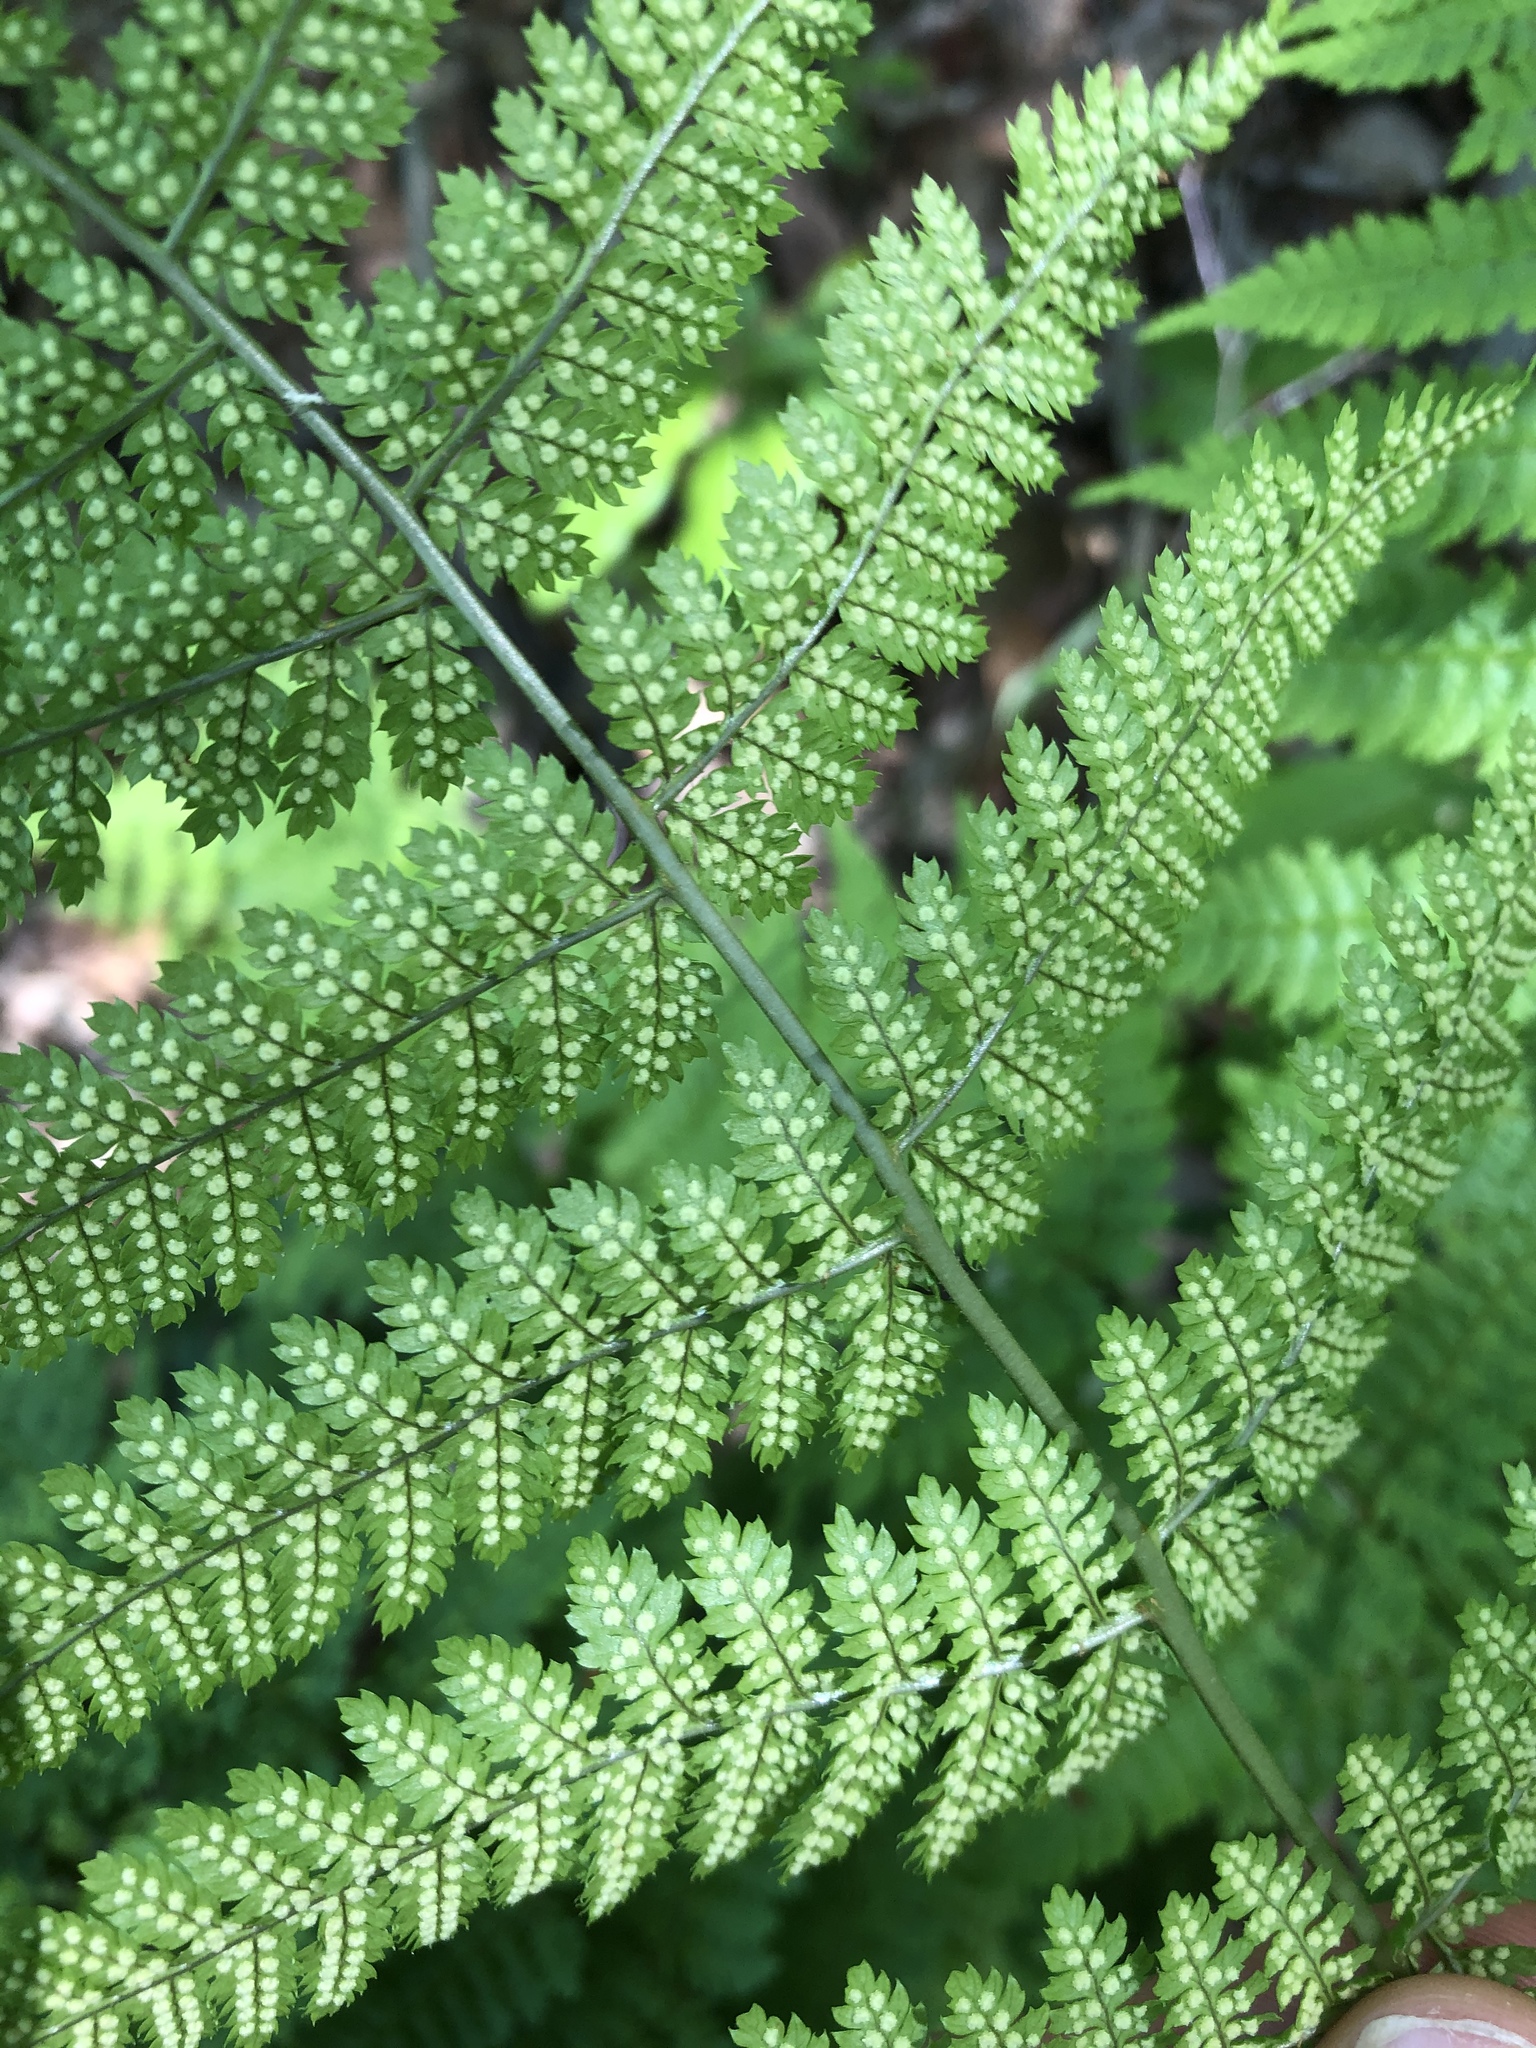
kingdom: Plantae
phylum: Tracheophyta
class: Polypodiopsida
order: Polypodiales
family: Dryopteridaceae
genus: Dryopteris
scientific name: Dryopteris intermedia
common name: Evergreen wood fern
